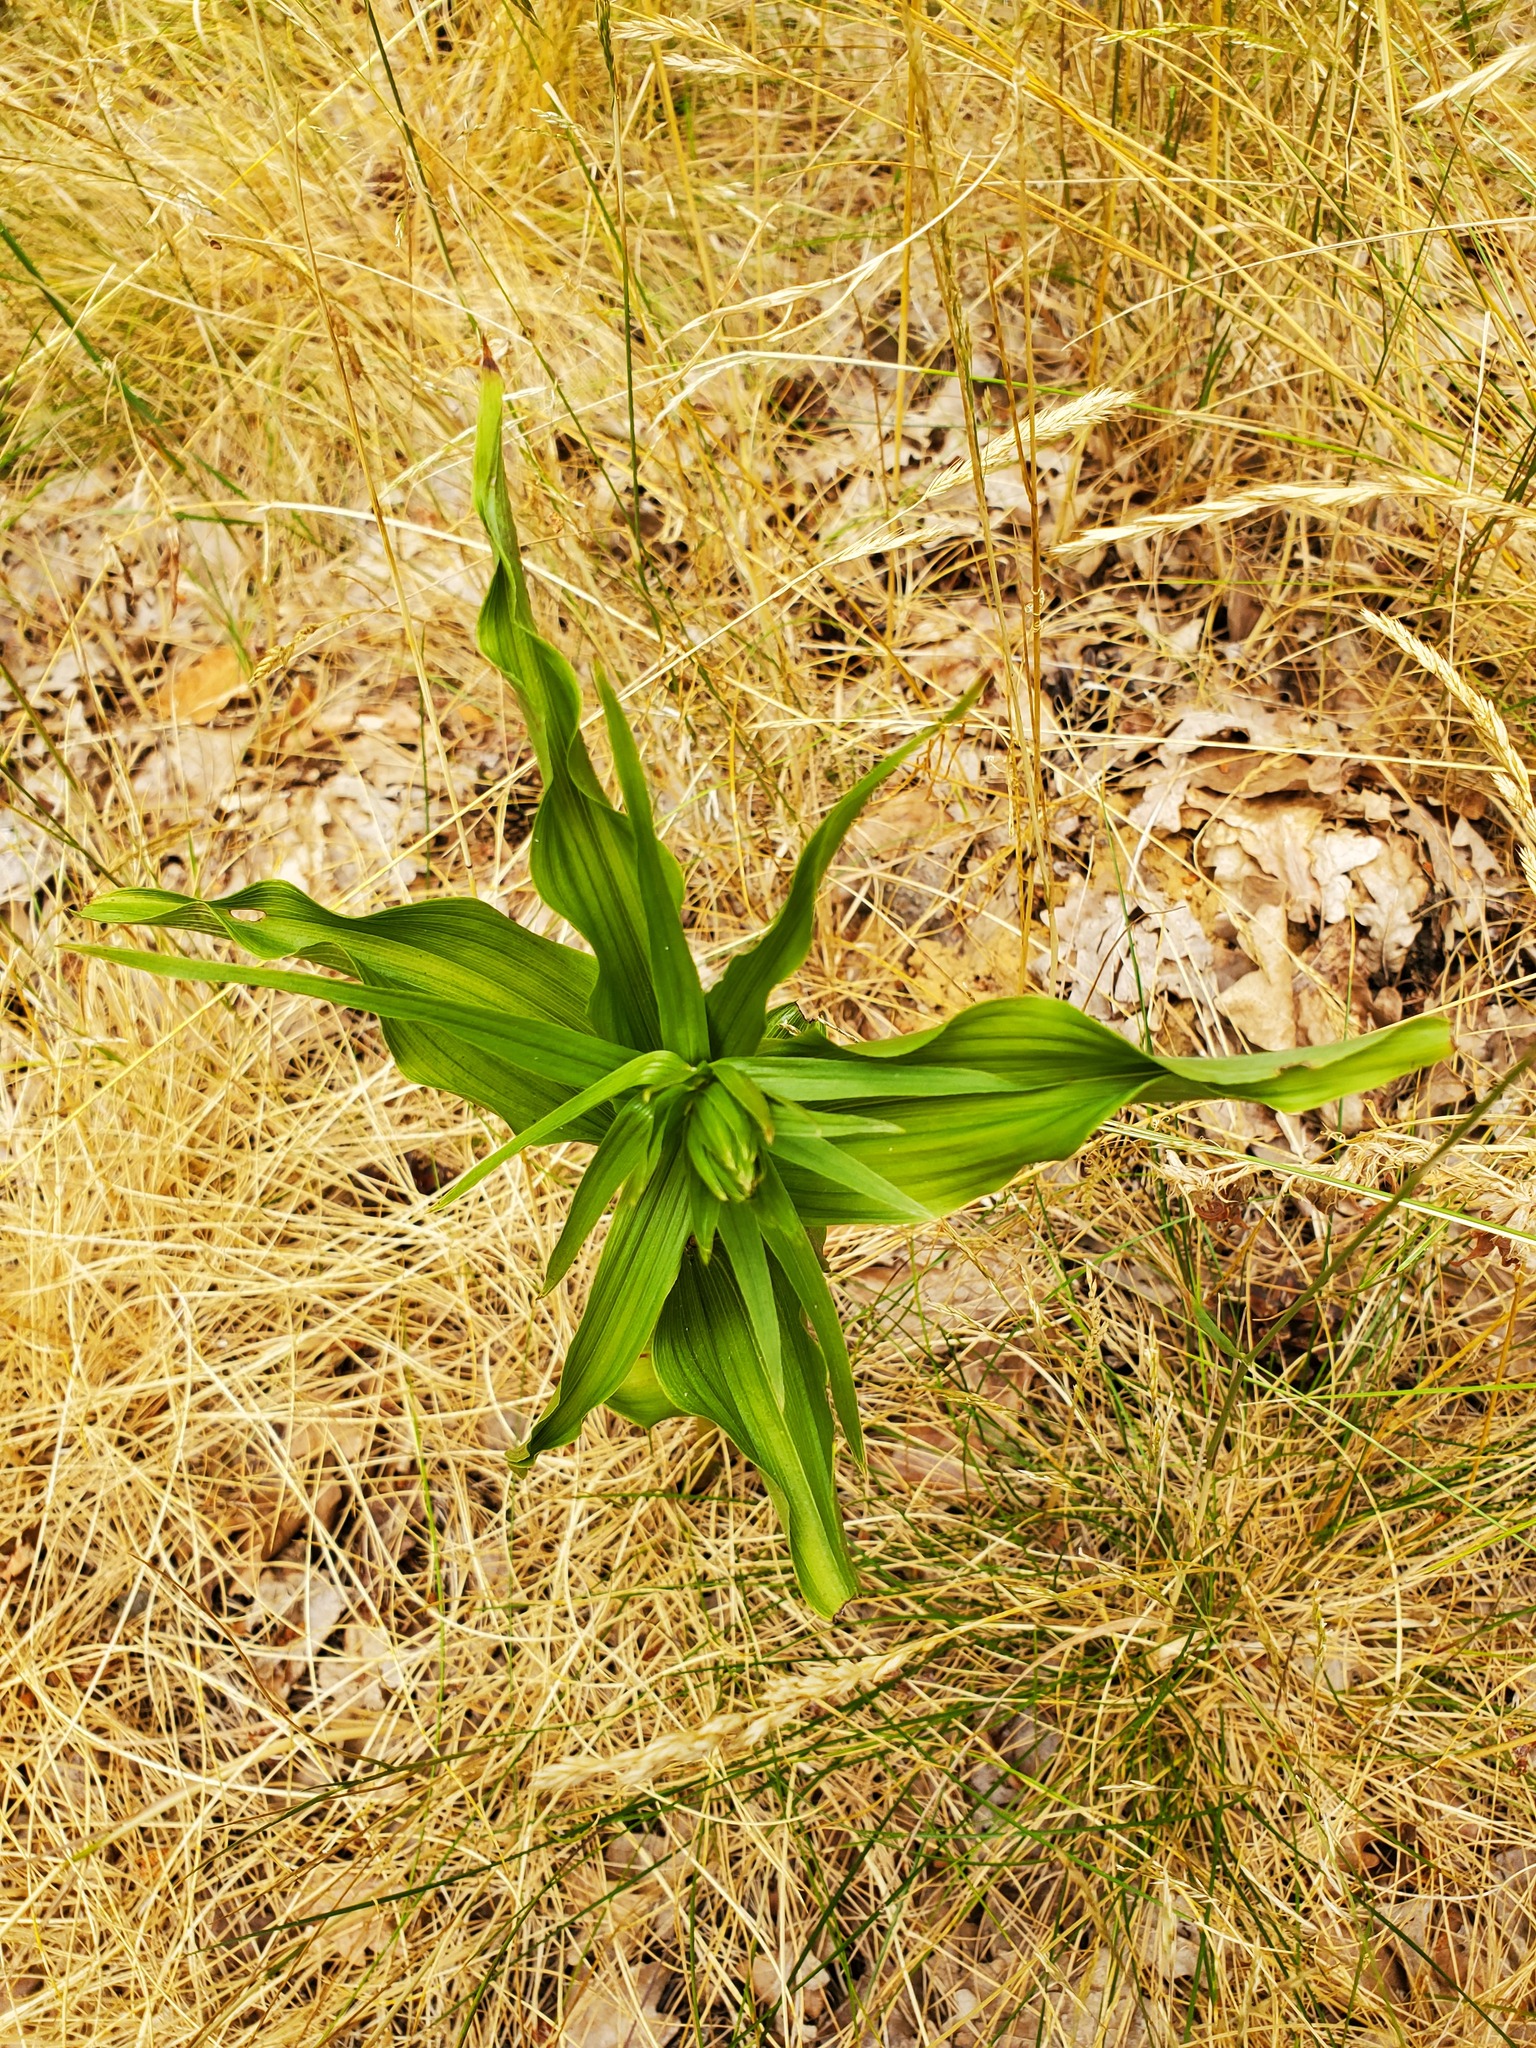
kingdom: Plantae
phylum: Tracheophyta
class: Liliopsida
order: Asparagales
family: Orchidaceae
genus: Epipactis
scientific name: Epipactis helleborine
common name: Broad-leaved helleborine
